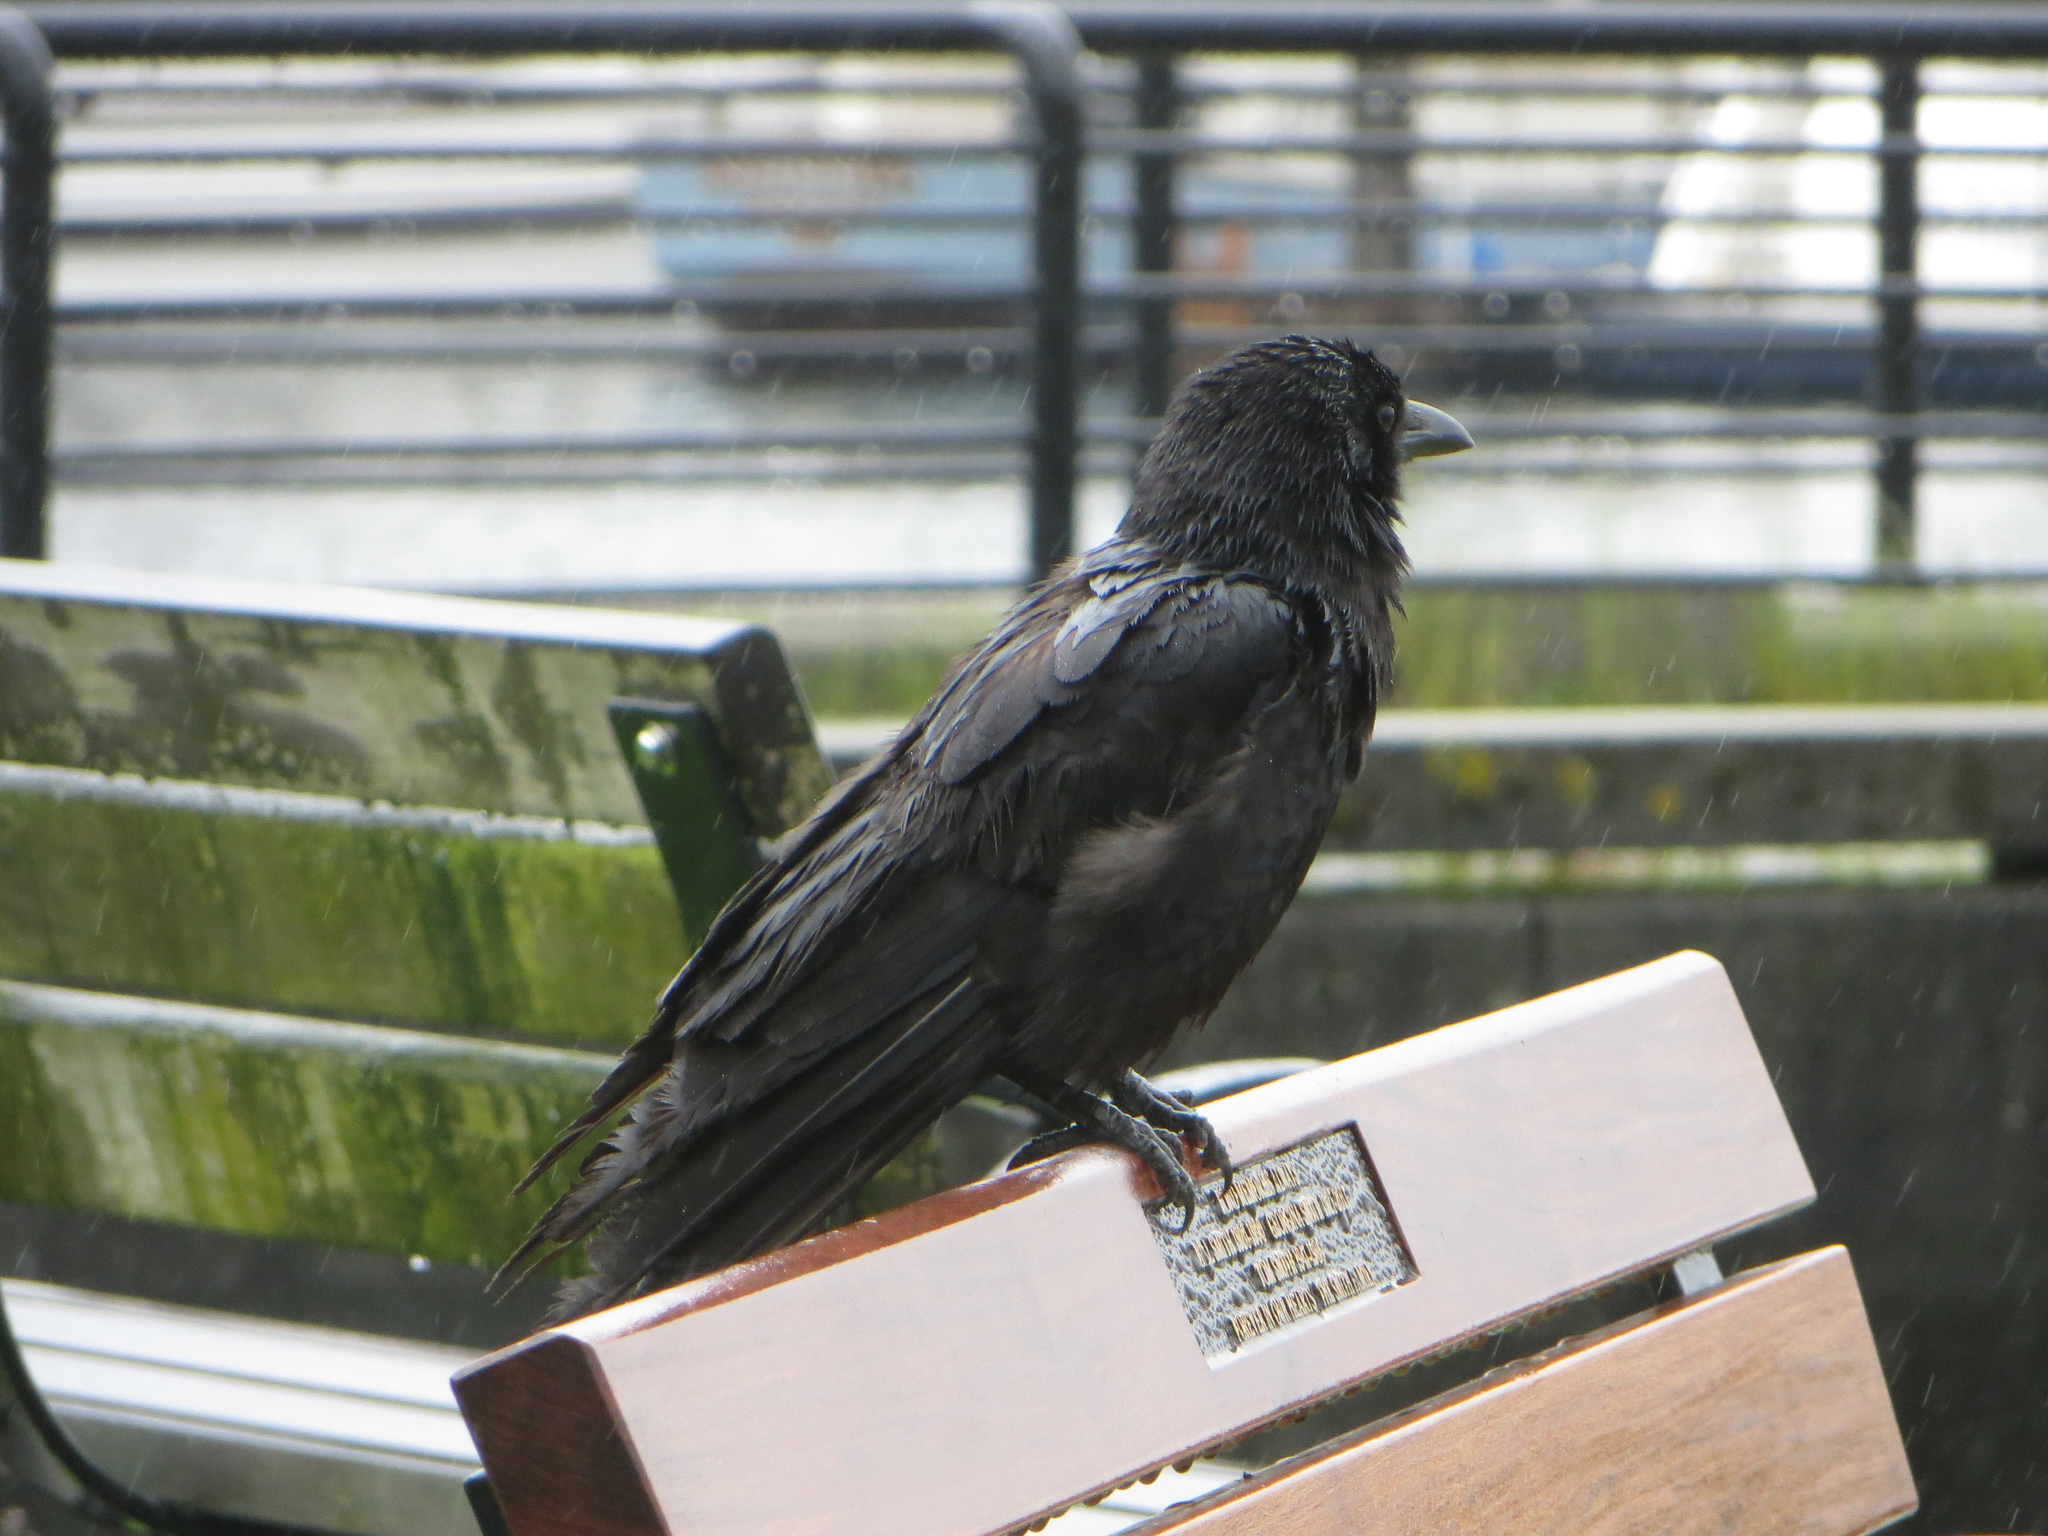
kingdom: Animalia
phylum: Chordata
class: Aves
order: Passeriformes
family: Corvidae
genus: Corvus
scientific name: Corvus brachyrhynchos
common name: American crow
